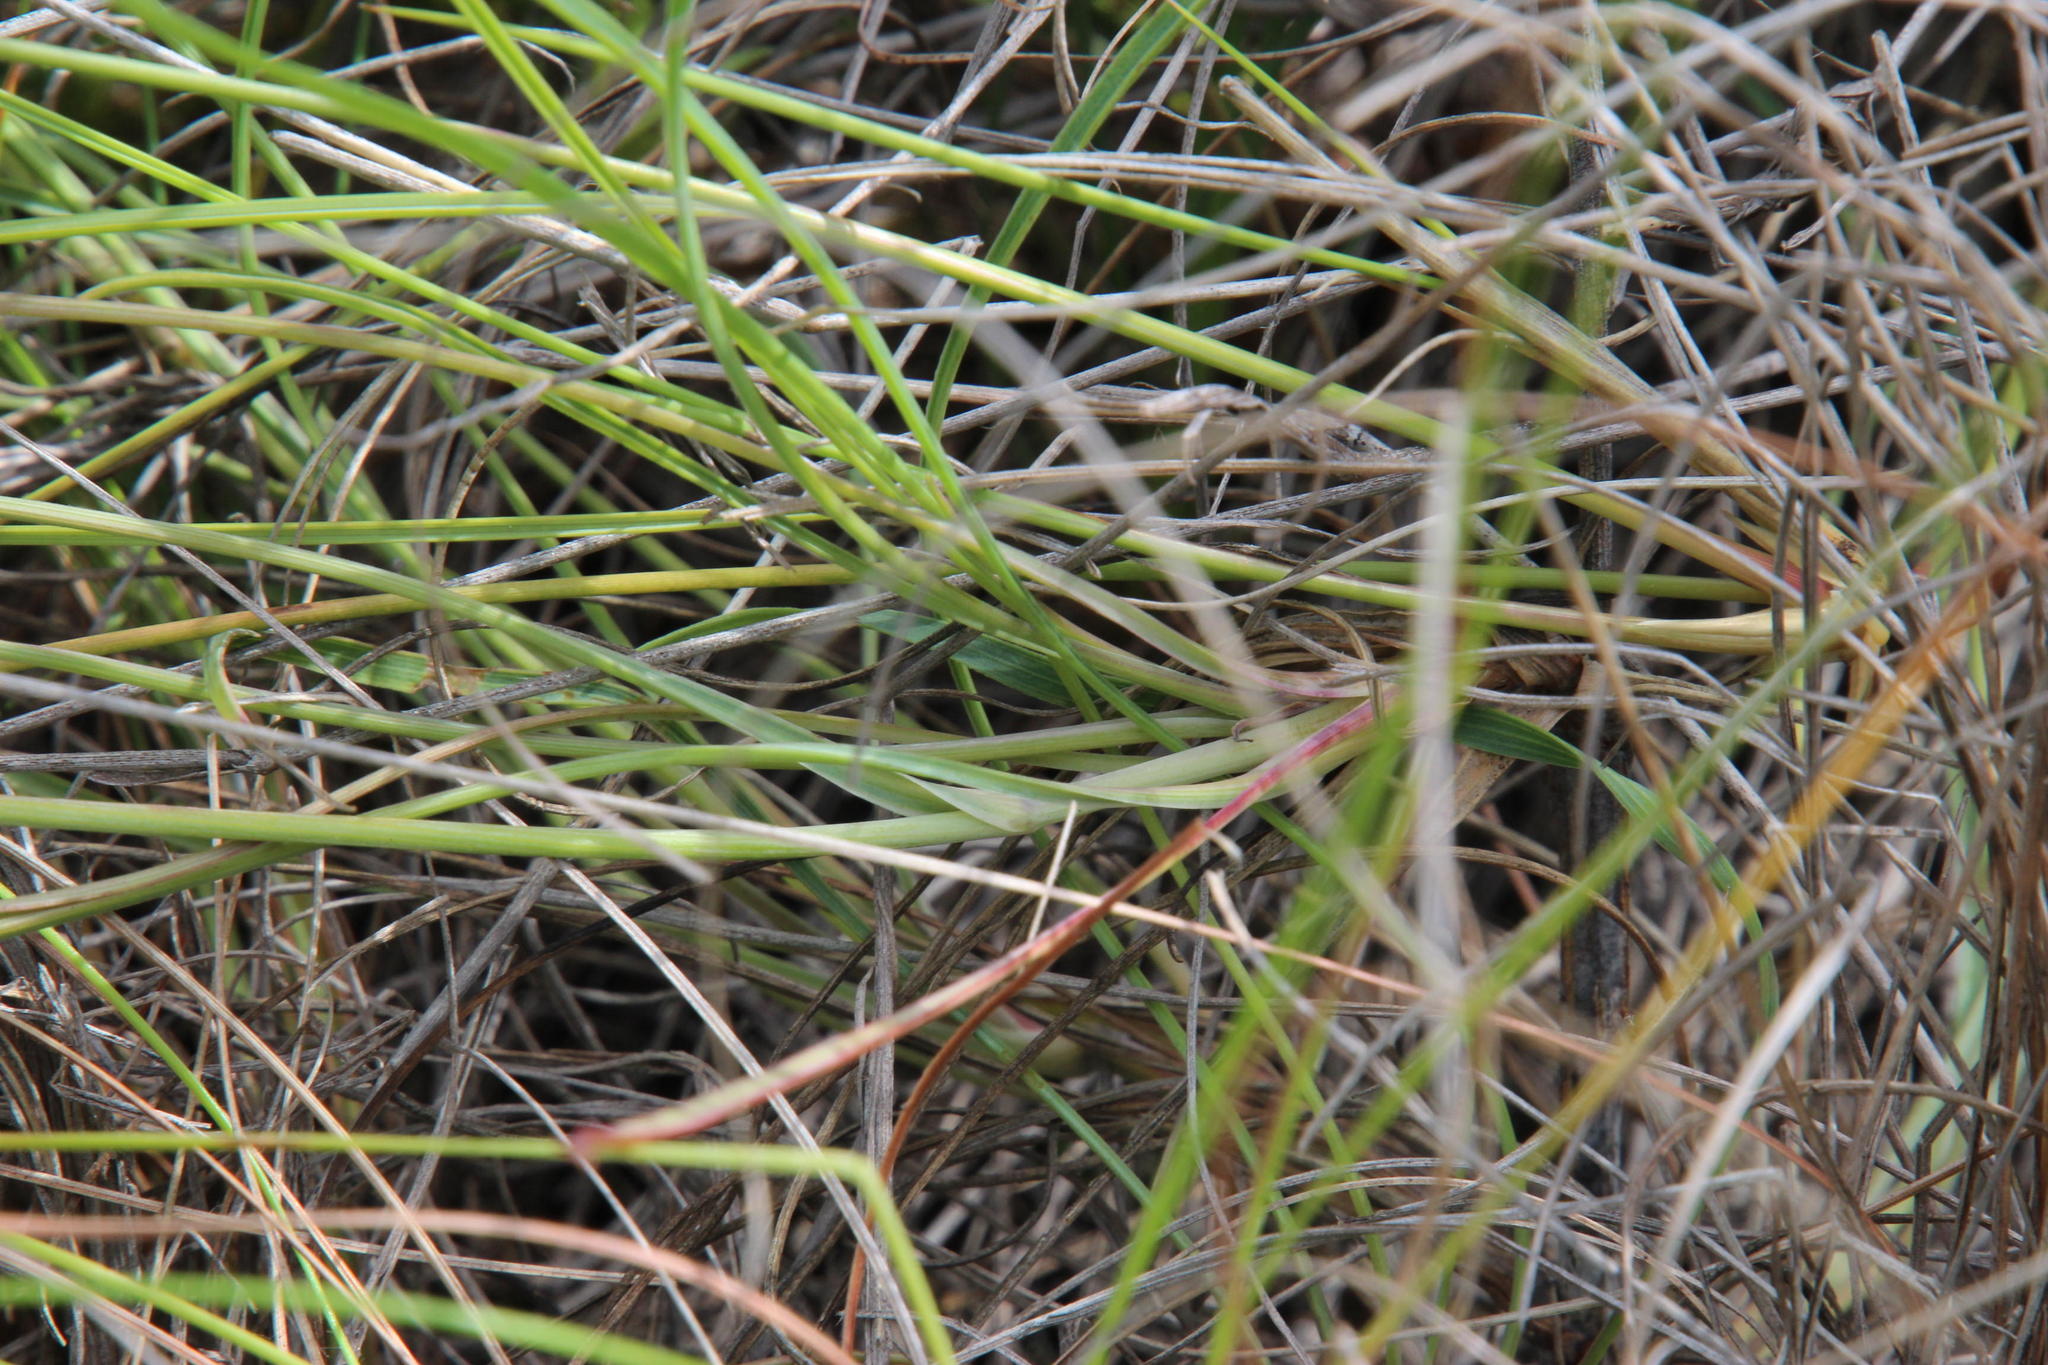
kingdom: Plantae
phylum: Tracheophyta
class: Magnoliopsida
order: Apiales
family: Apiaceae
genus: Bupleurum
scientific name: Bupleurum mundii
